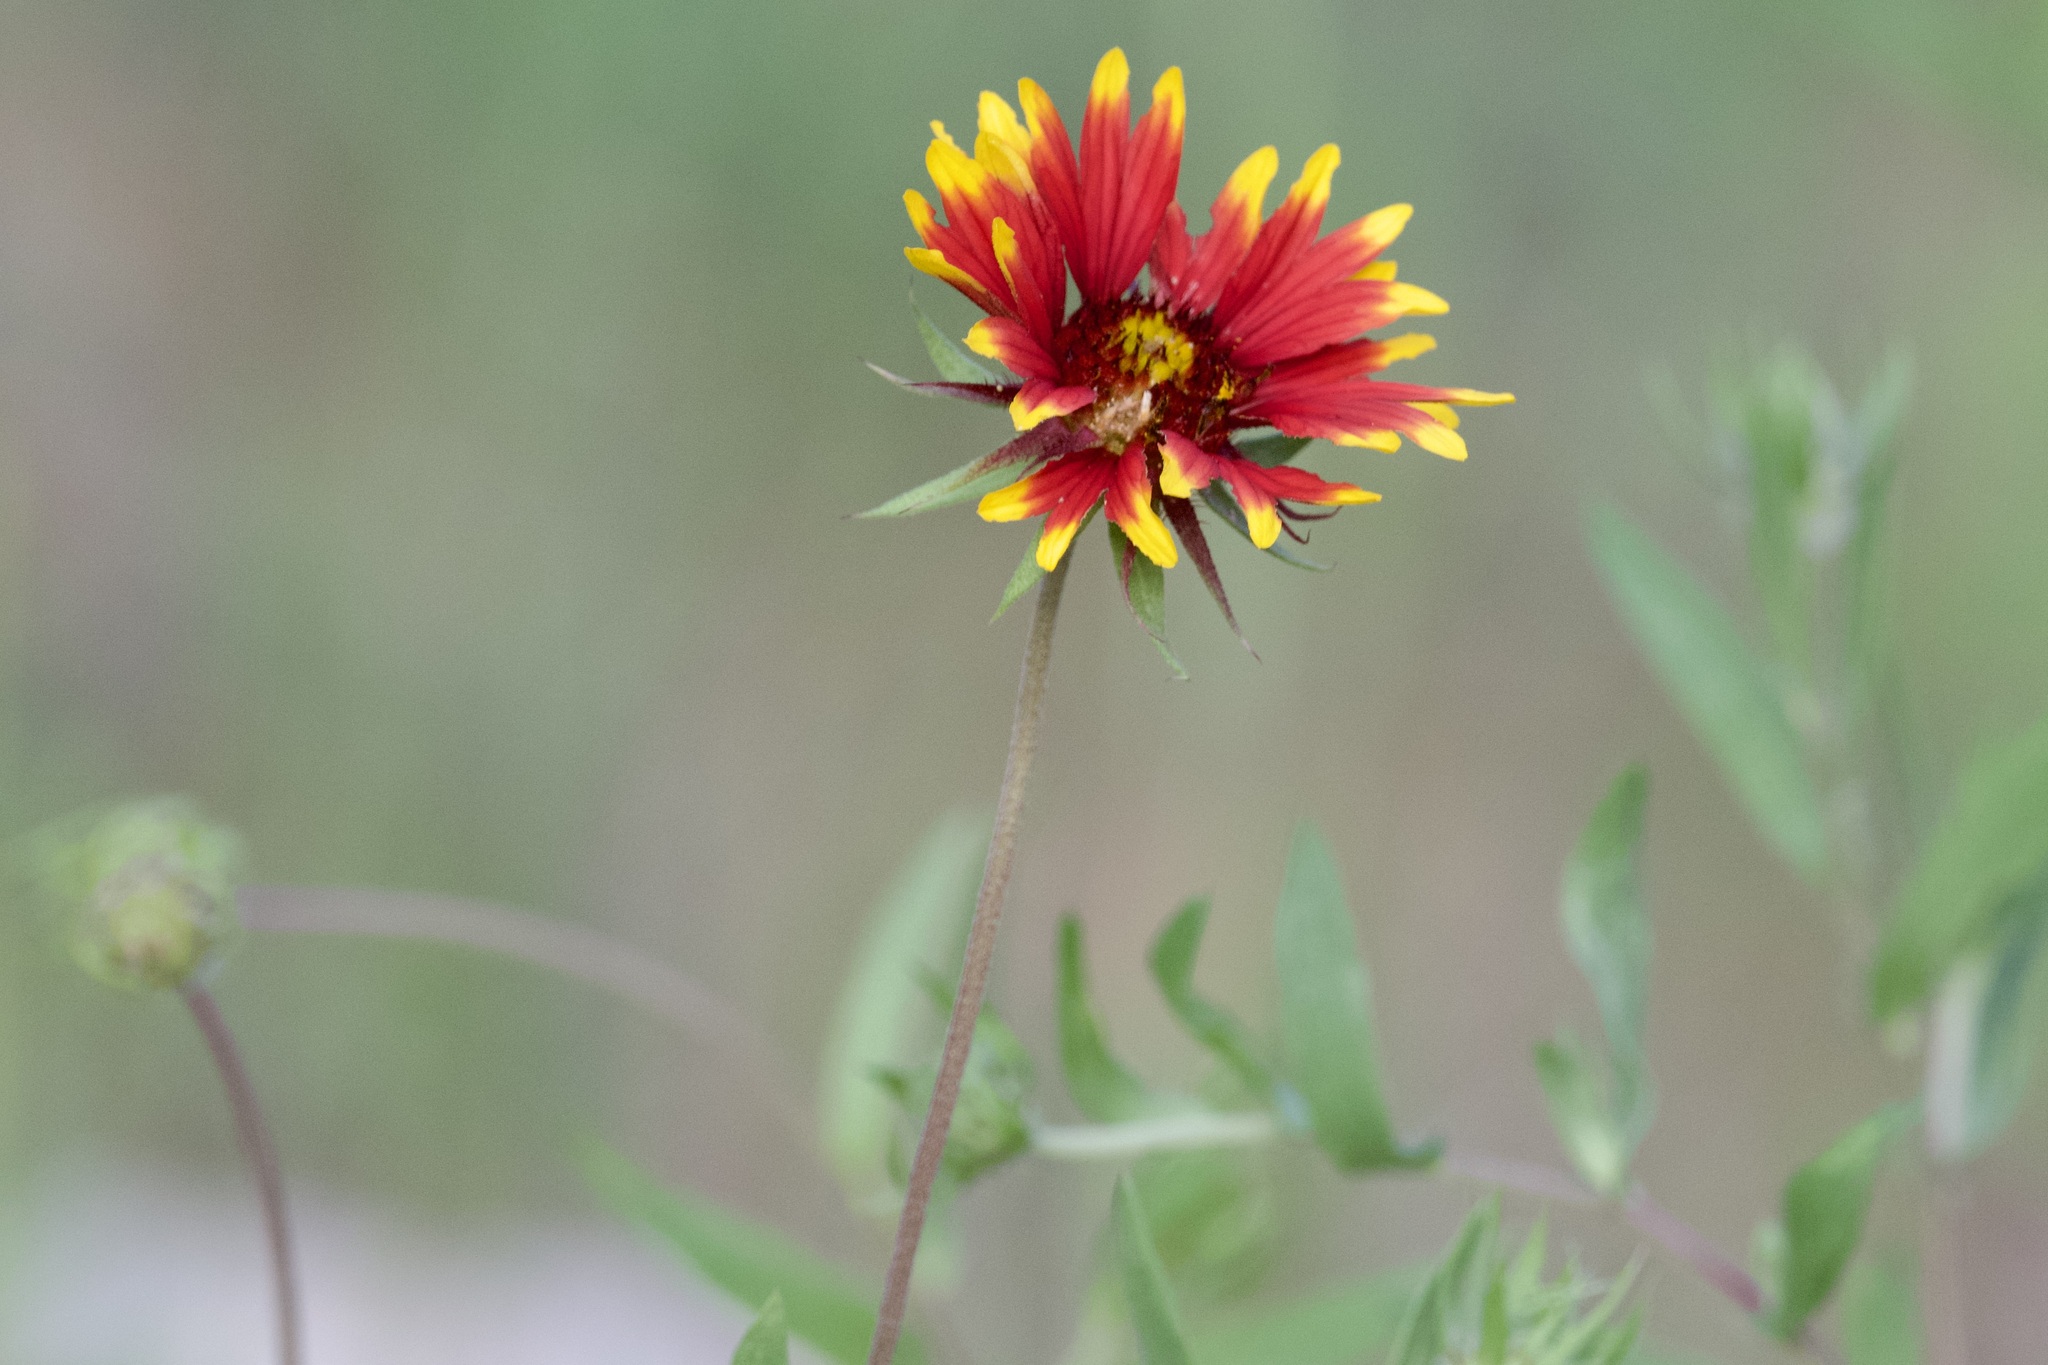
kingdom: Plantae
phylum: Tracheophyta
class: Magnoliopsida
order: Asterales
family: Asteraceae
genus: Gaillardia
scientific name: Gaillardia pulchella
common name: Firewheel
